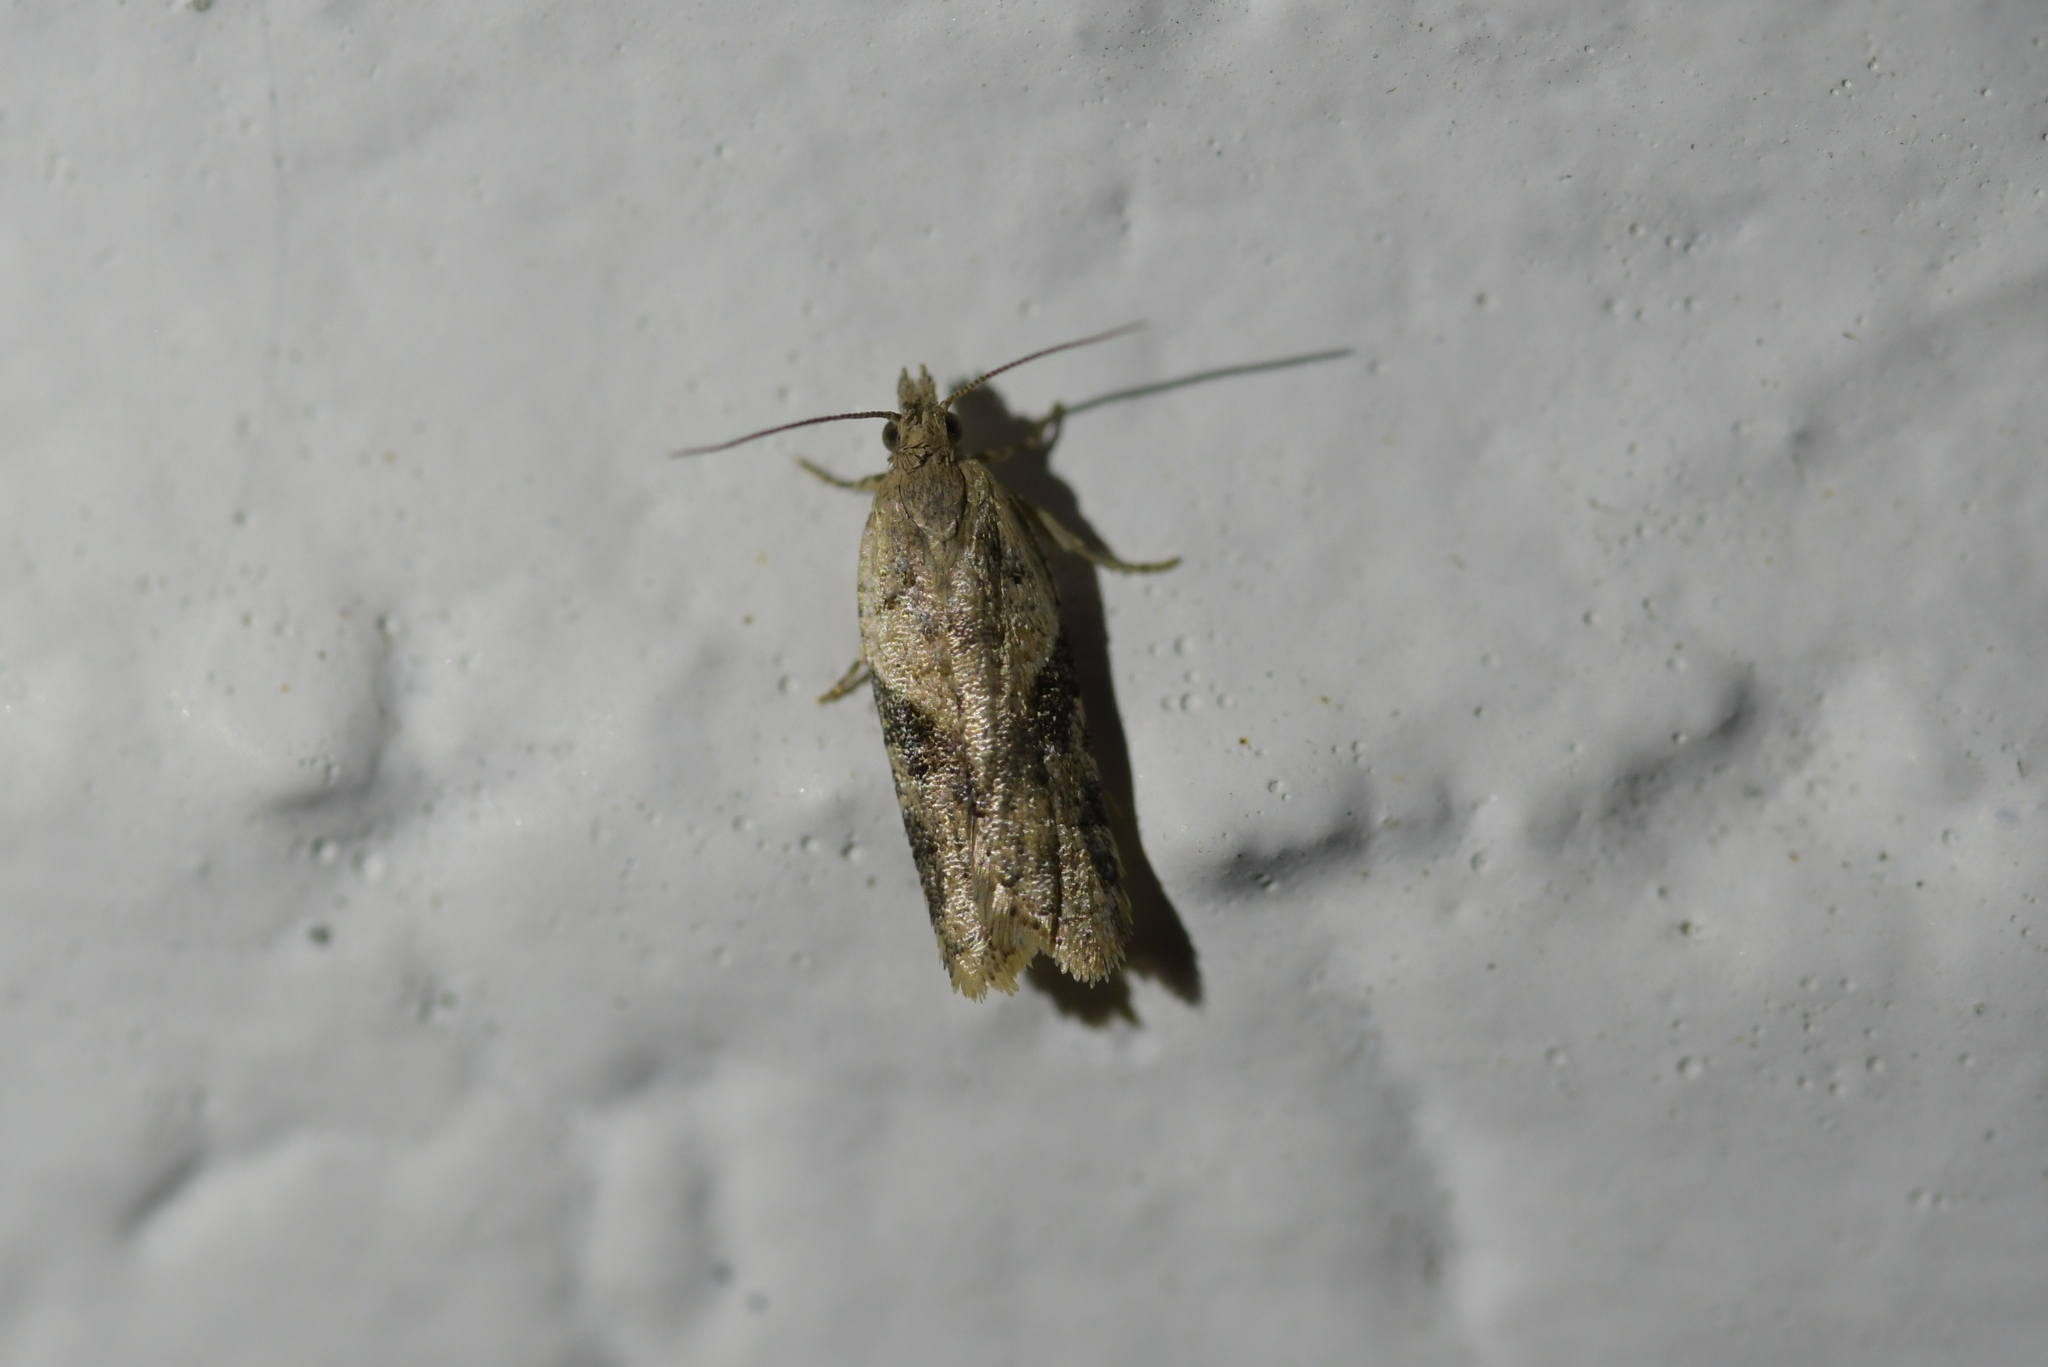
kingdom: Animalia
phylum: Arthropoda
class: Insecta
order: Lepidoptera
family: Tortricidae
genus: Capua
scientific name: Capua semiferana
